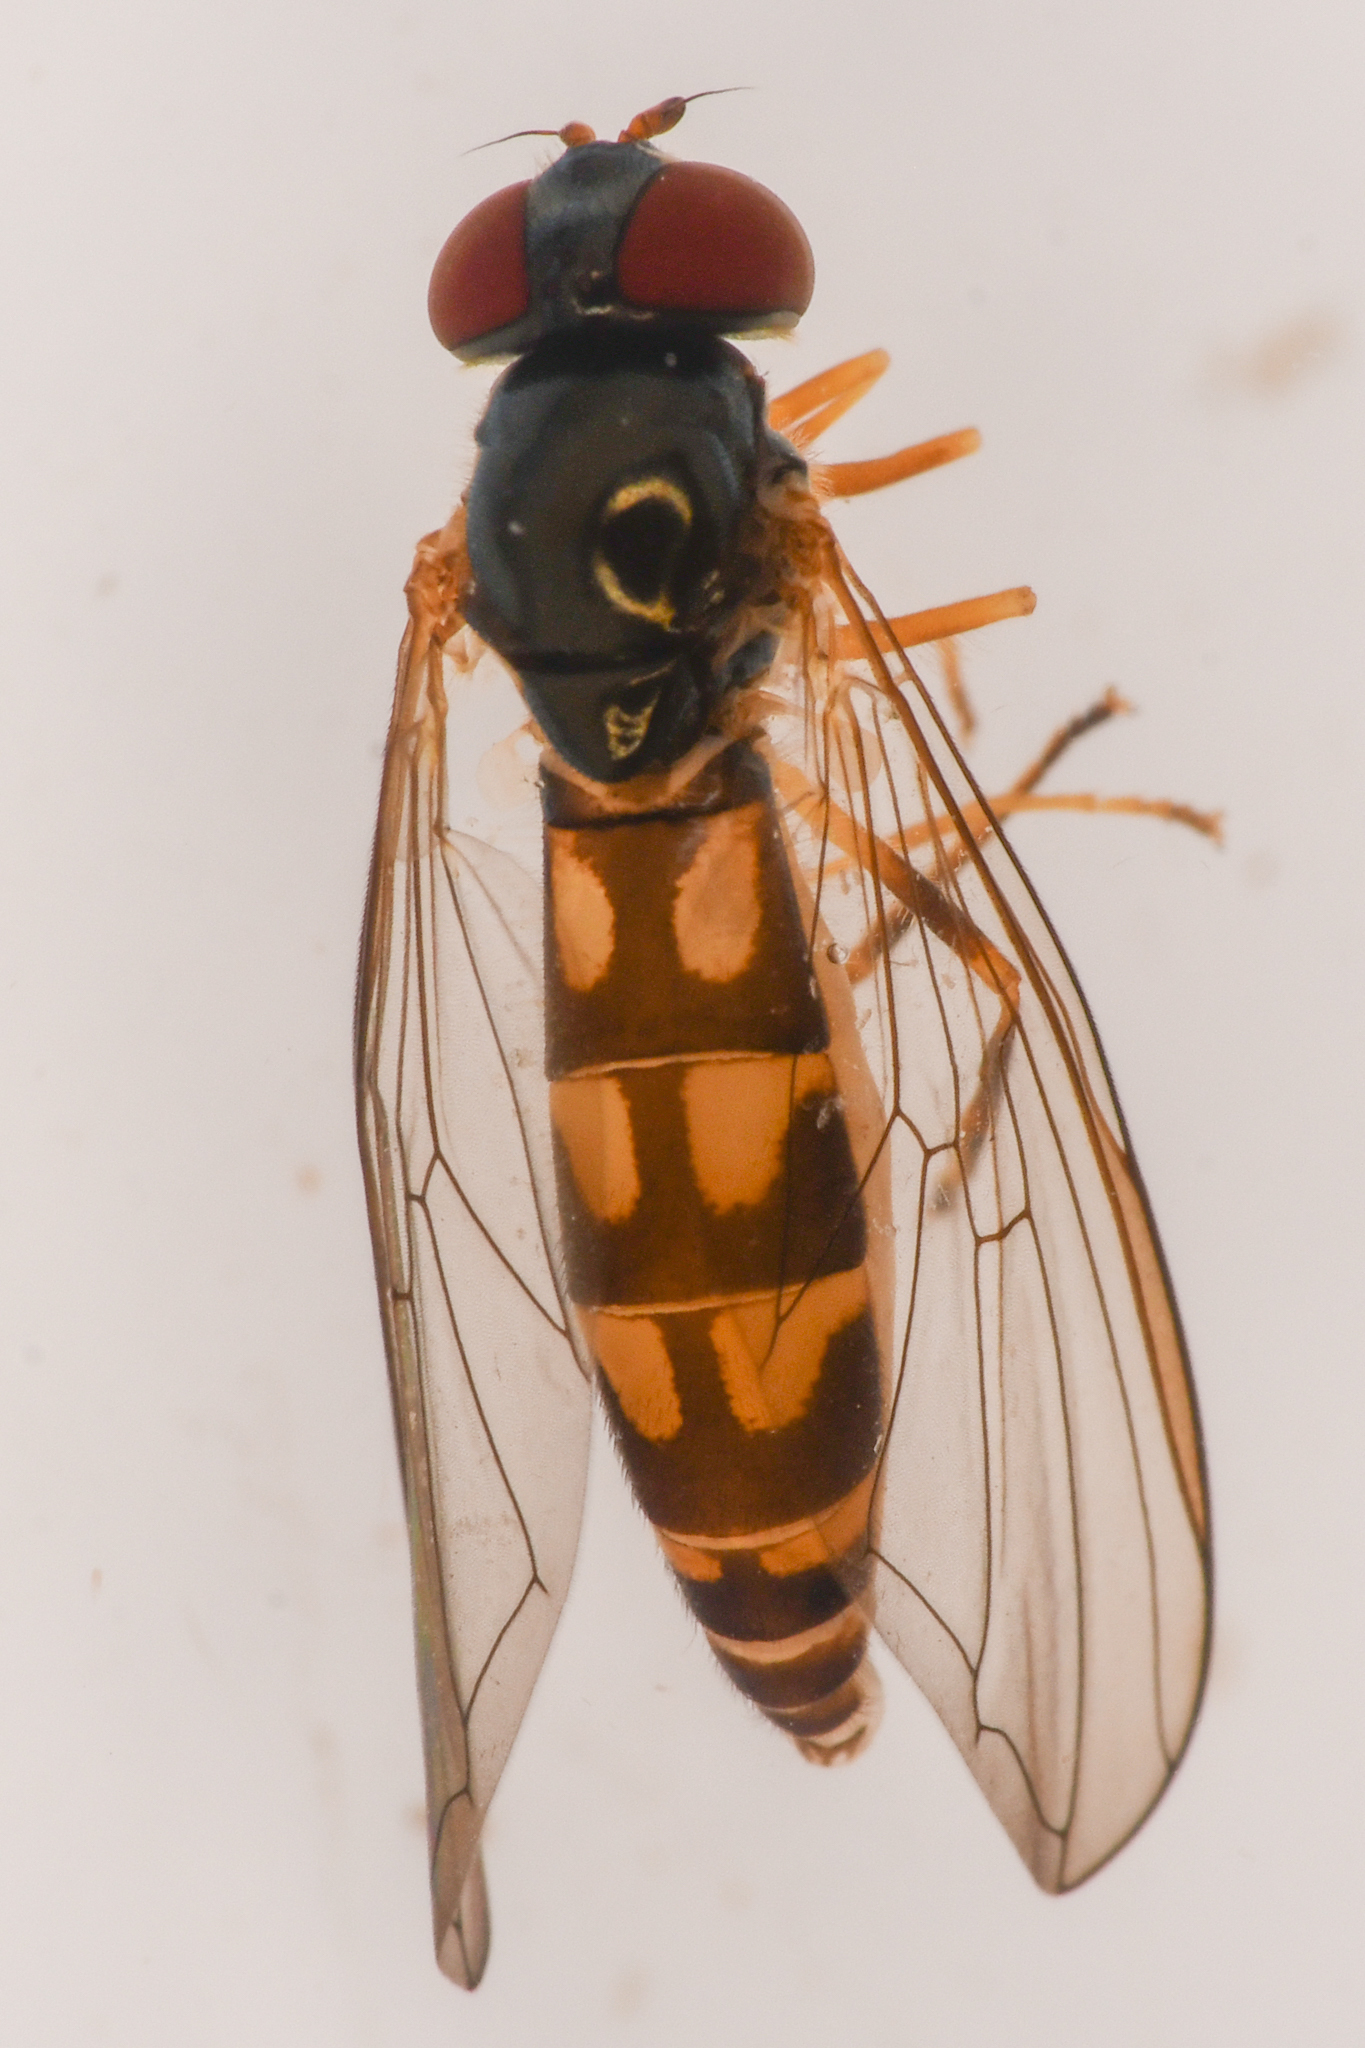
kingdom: Animalia
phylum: Arthropoda
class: Insecta
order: Diptera
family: Syrphidae
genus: Melanostoma
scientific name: Melanostoma mellina
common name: Hover fly
